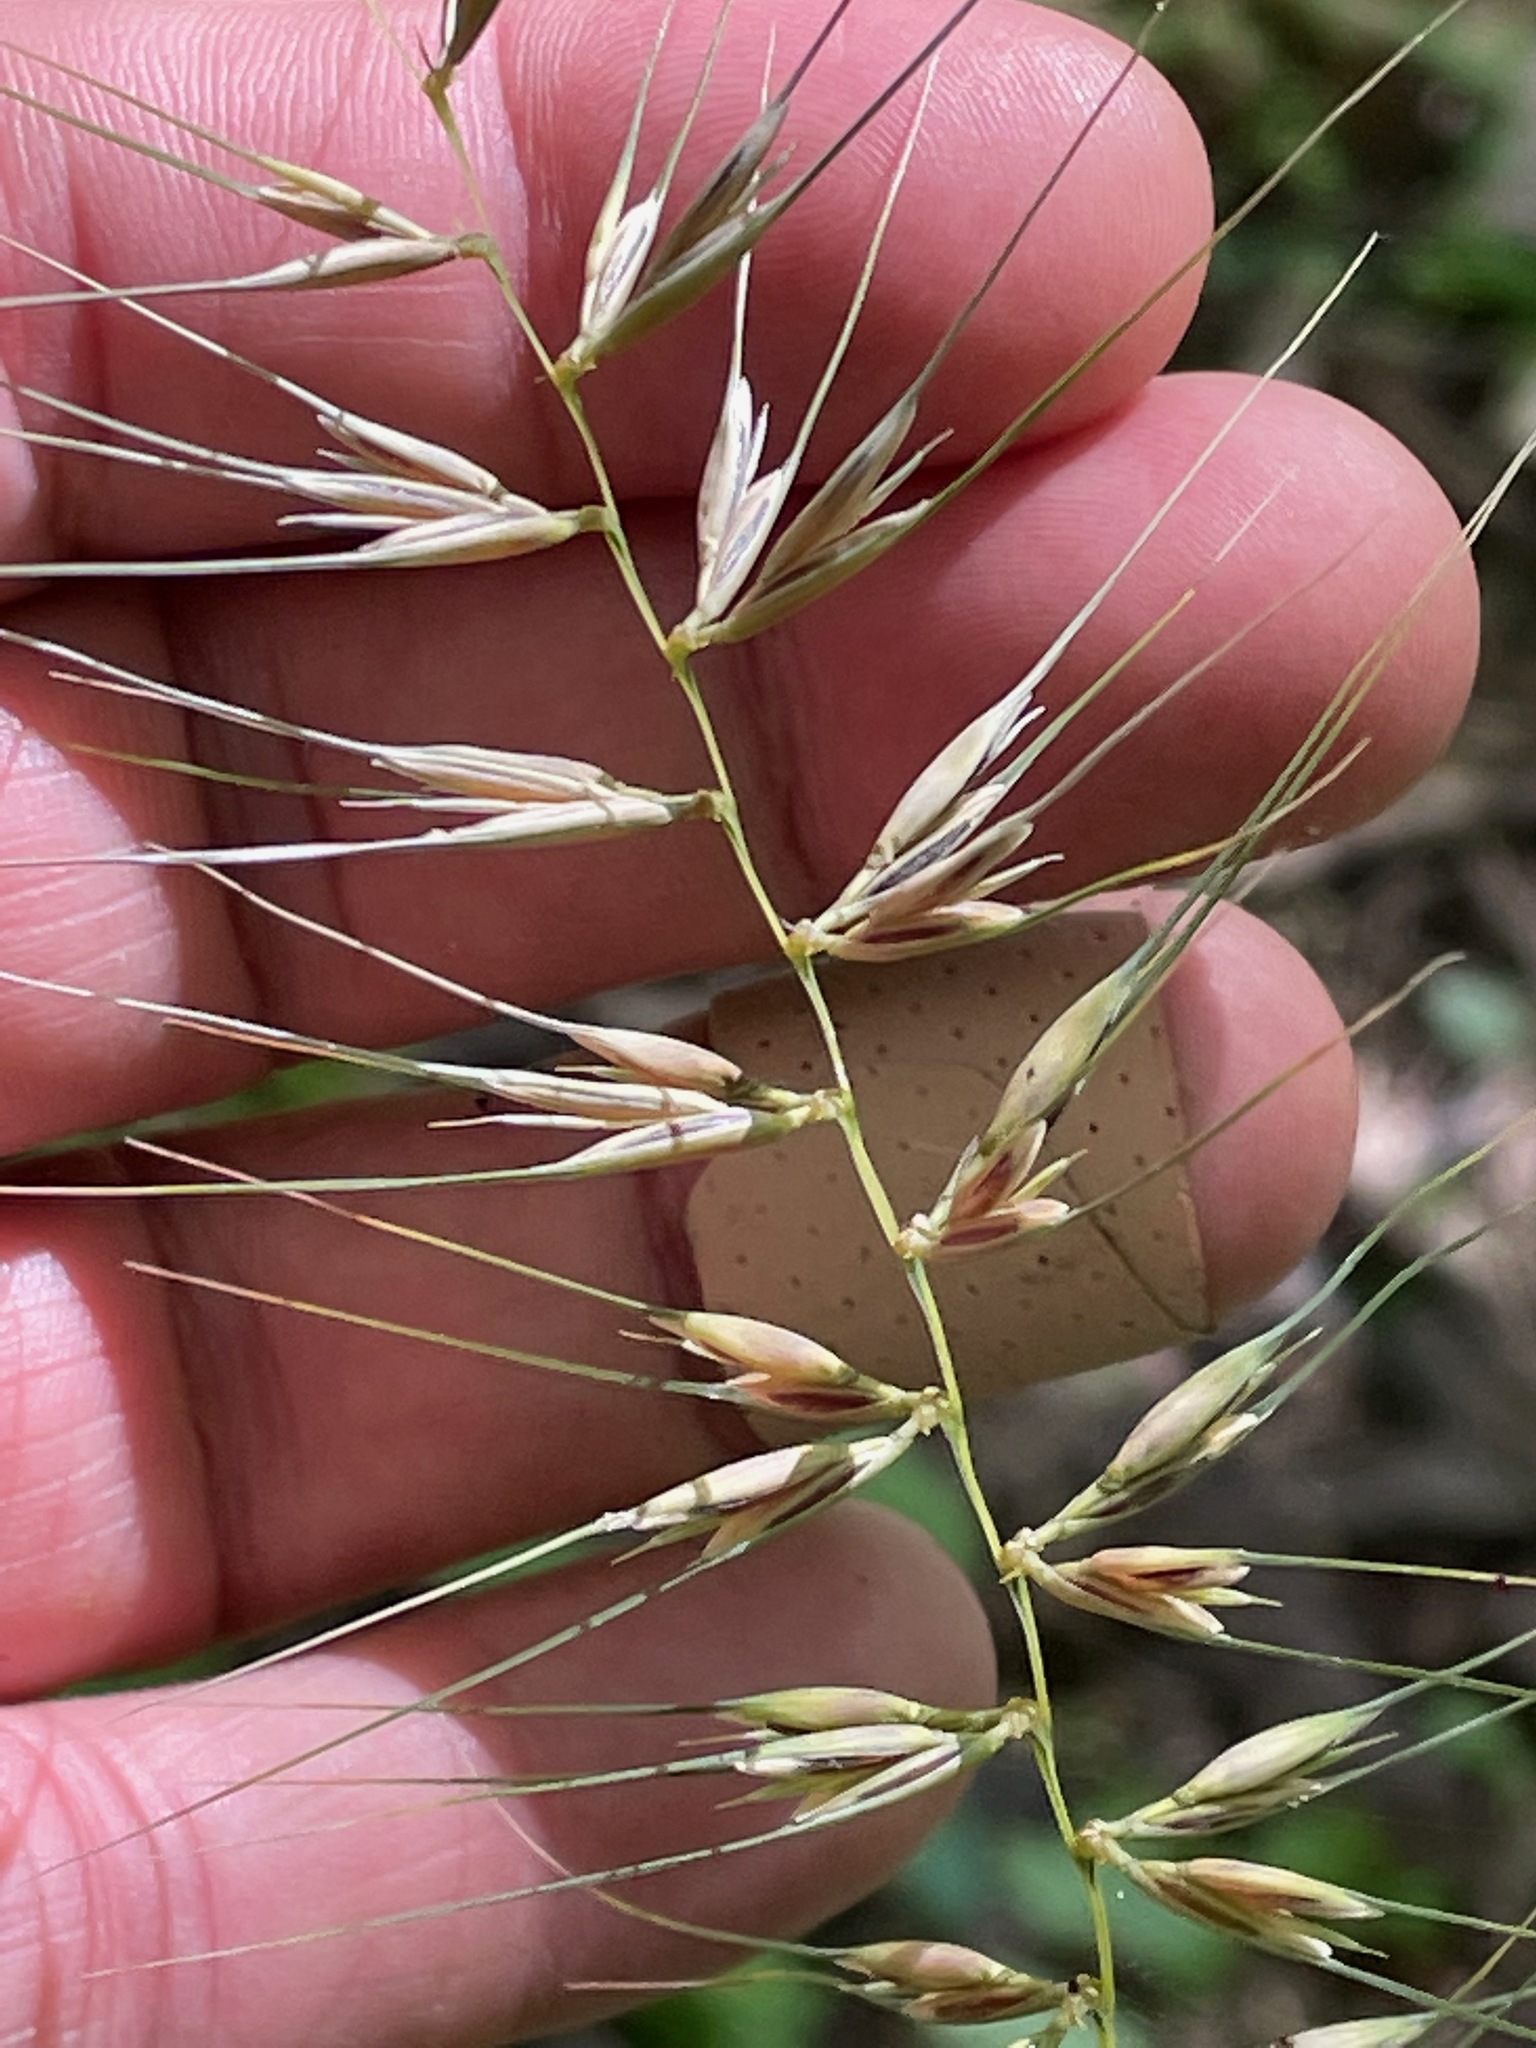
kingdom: Plantae
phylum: Tracheophyta
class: Liliopsida
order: Poales
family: Poaceae
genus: Elymus
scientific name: Elymus hystrix
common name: Bottlebrush grass
